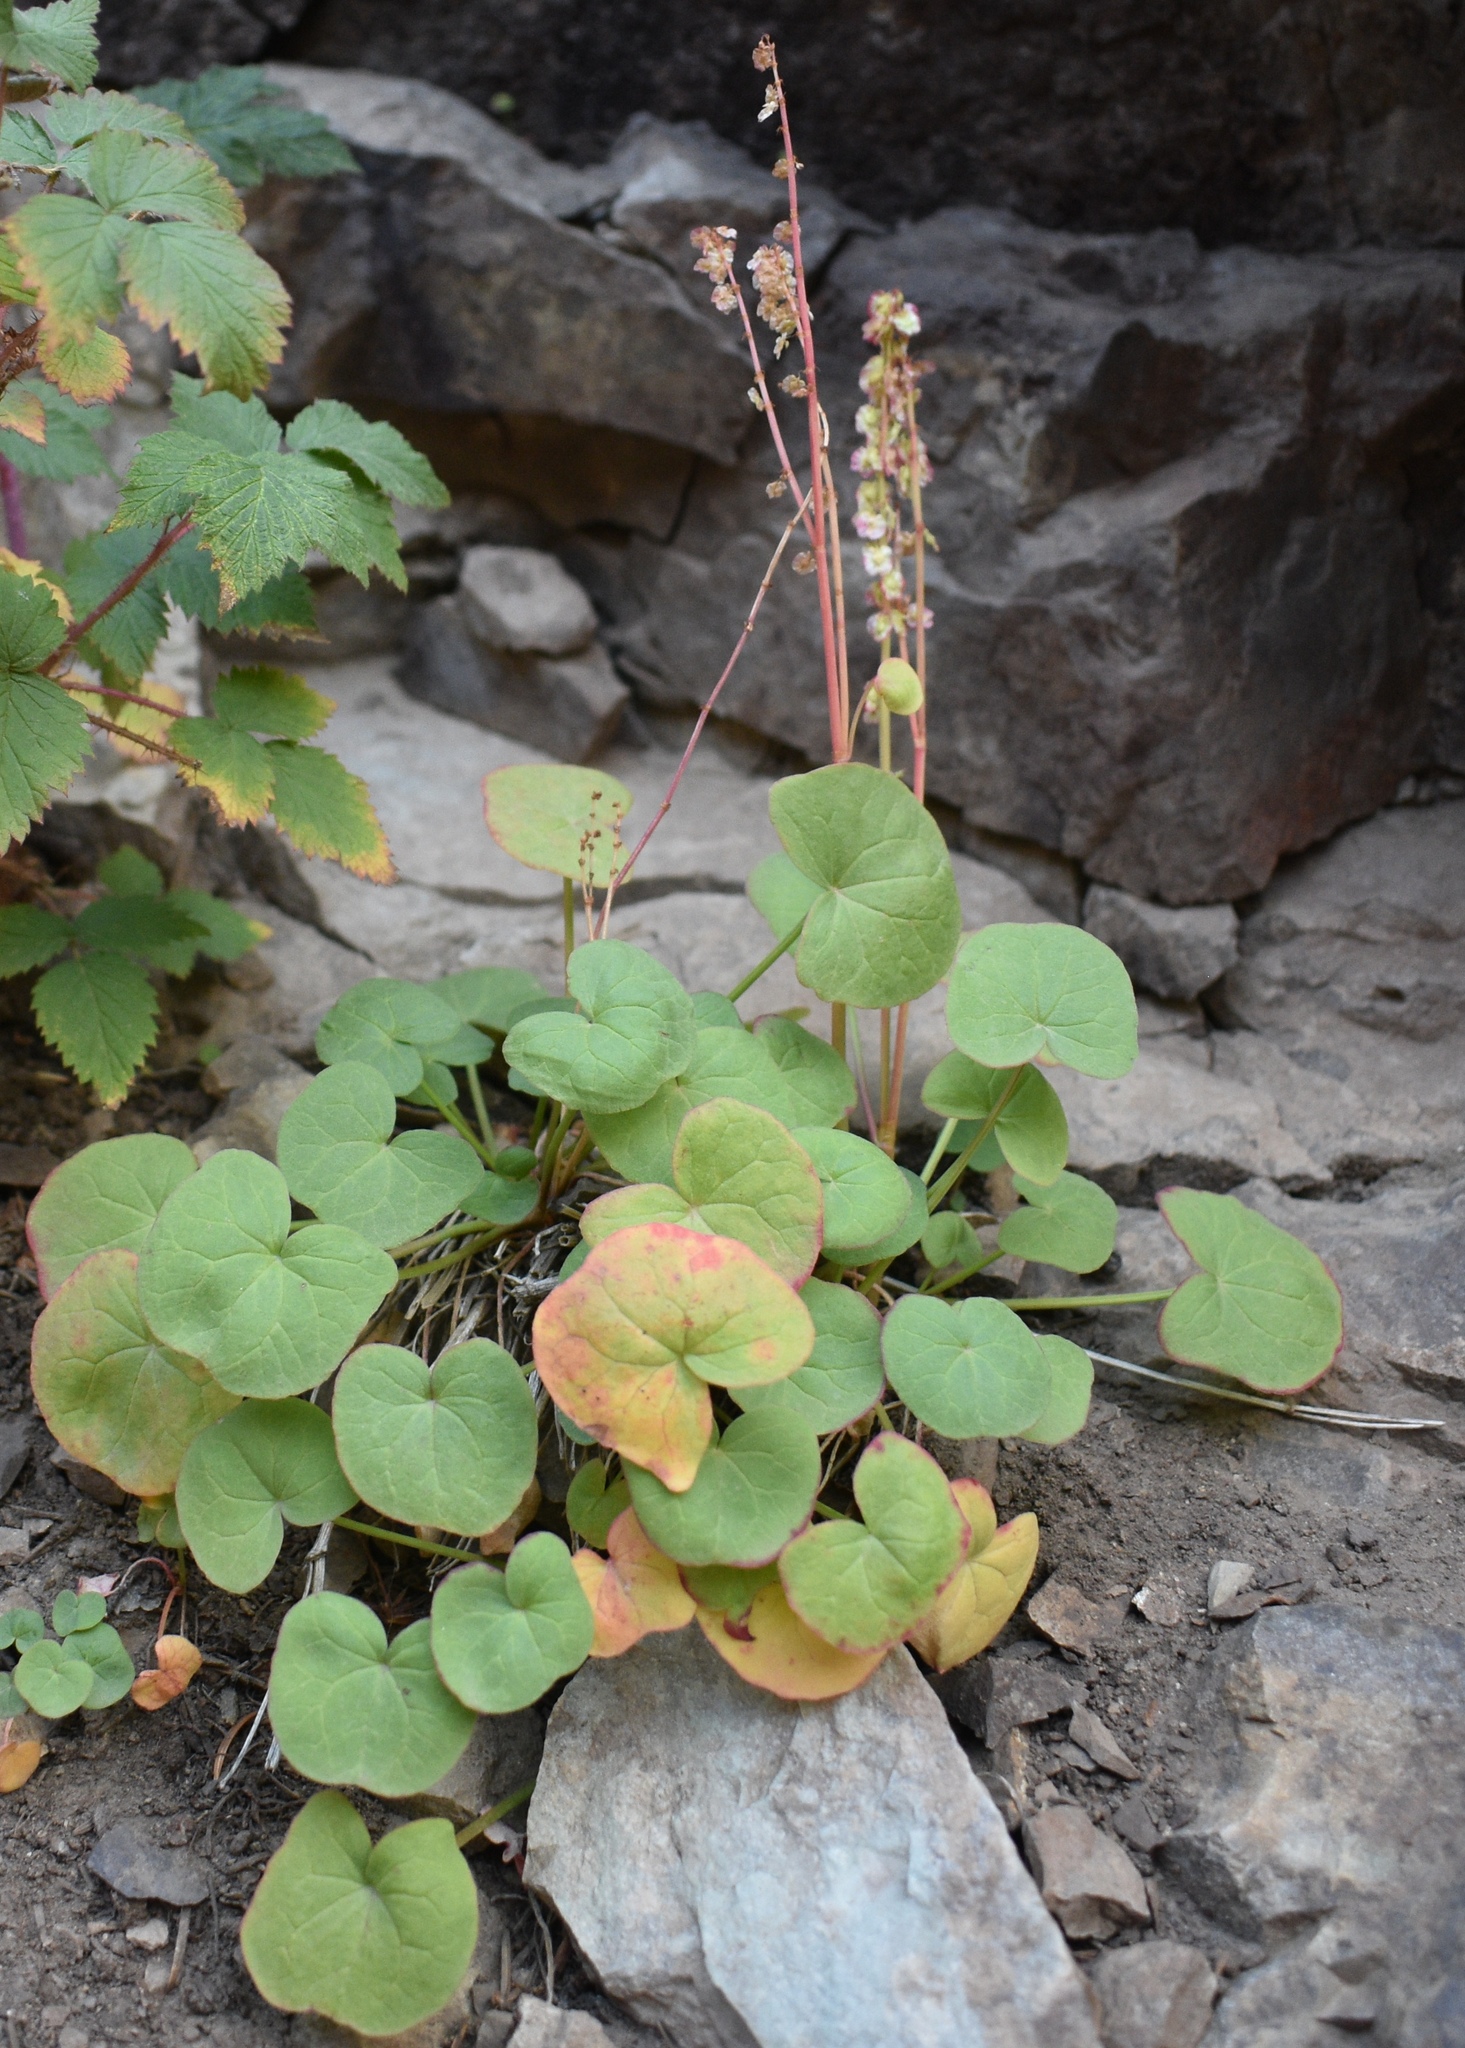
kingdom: Plantae
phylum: Tracheophyta
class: Magnoliopsida
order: Caryophyllales
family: Polygonaceae
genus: Oxyria
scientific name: Oxyria digyna
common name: Alpine mountain-sorrel
